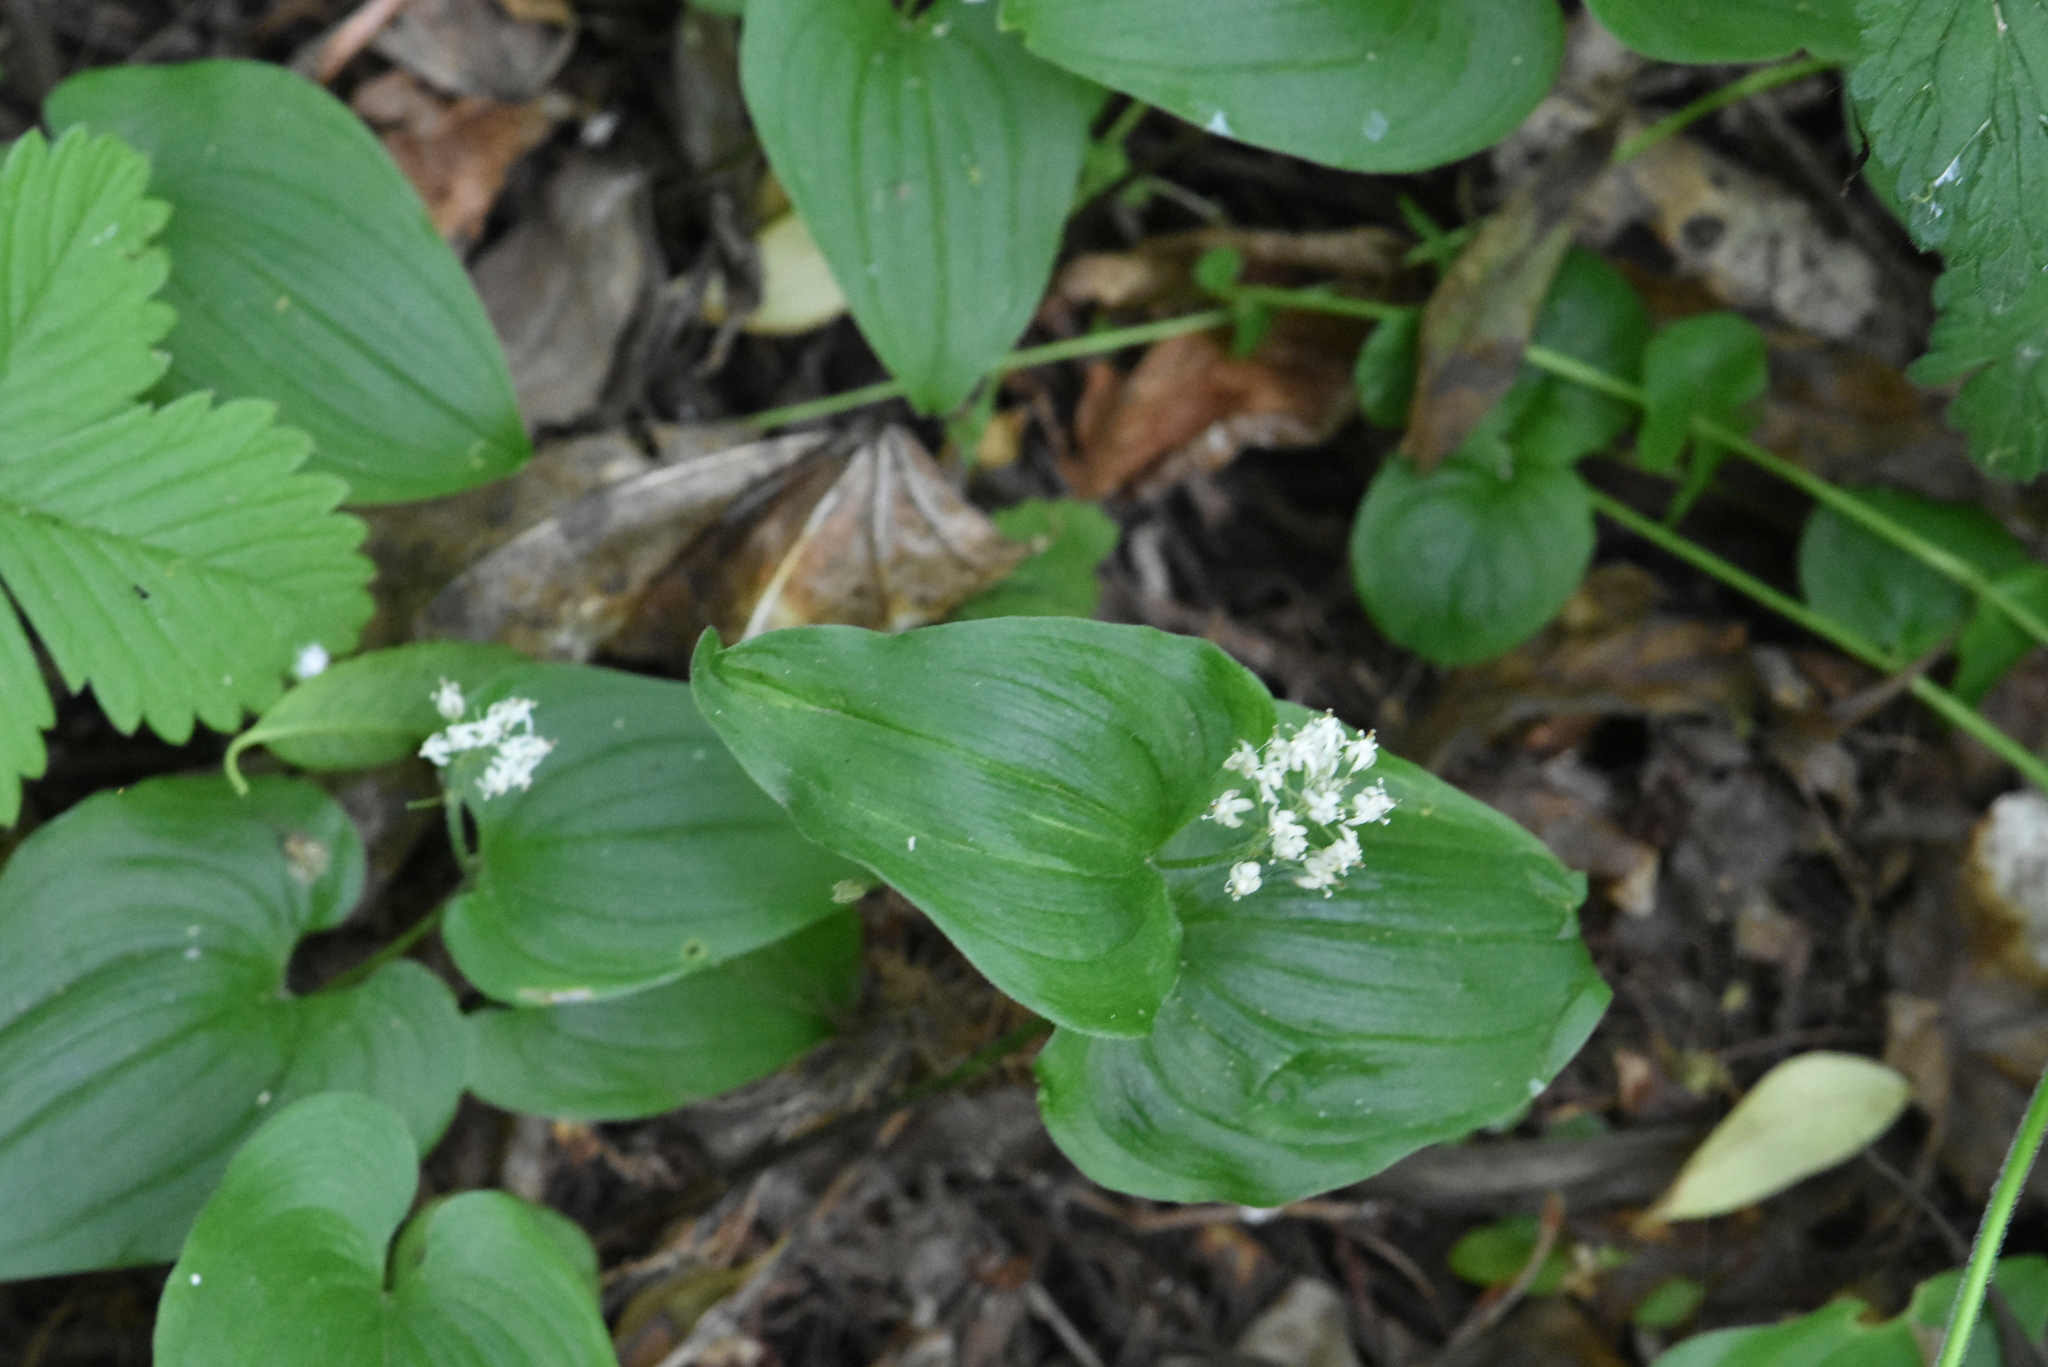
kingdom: Plantae
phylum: Tracheophyta
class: Liliopsida
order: Asparagales
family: Asparagaceae
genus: Maianthemum
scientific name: Maianthemum bifolium
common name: May lily
